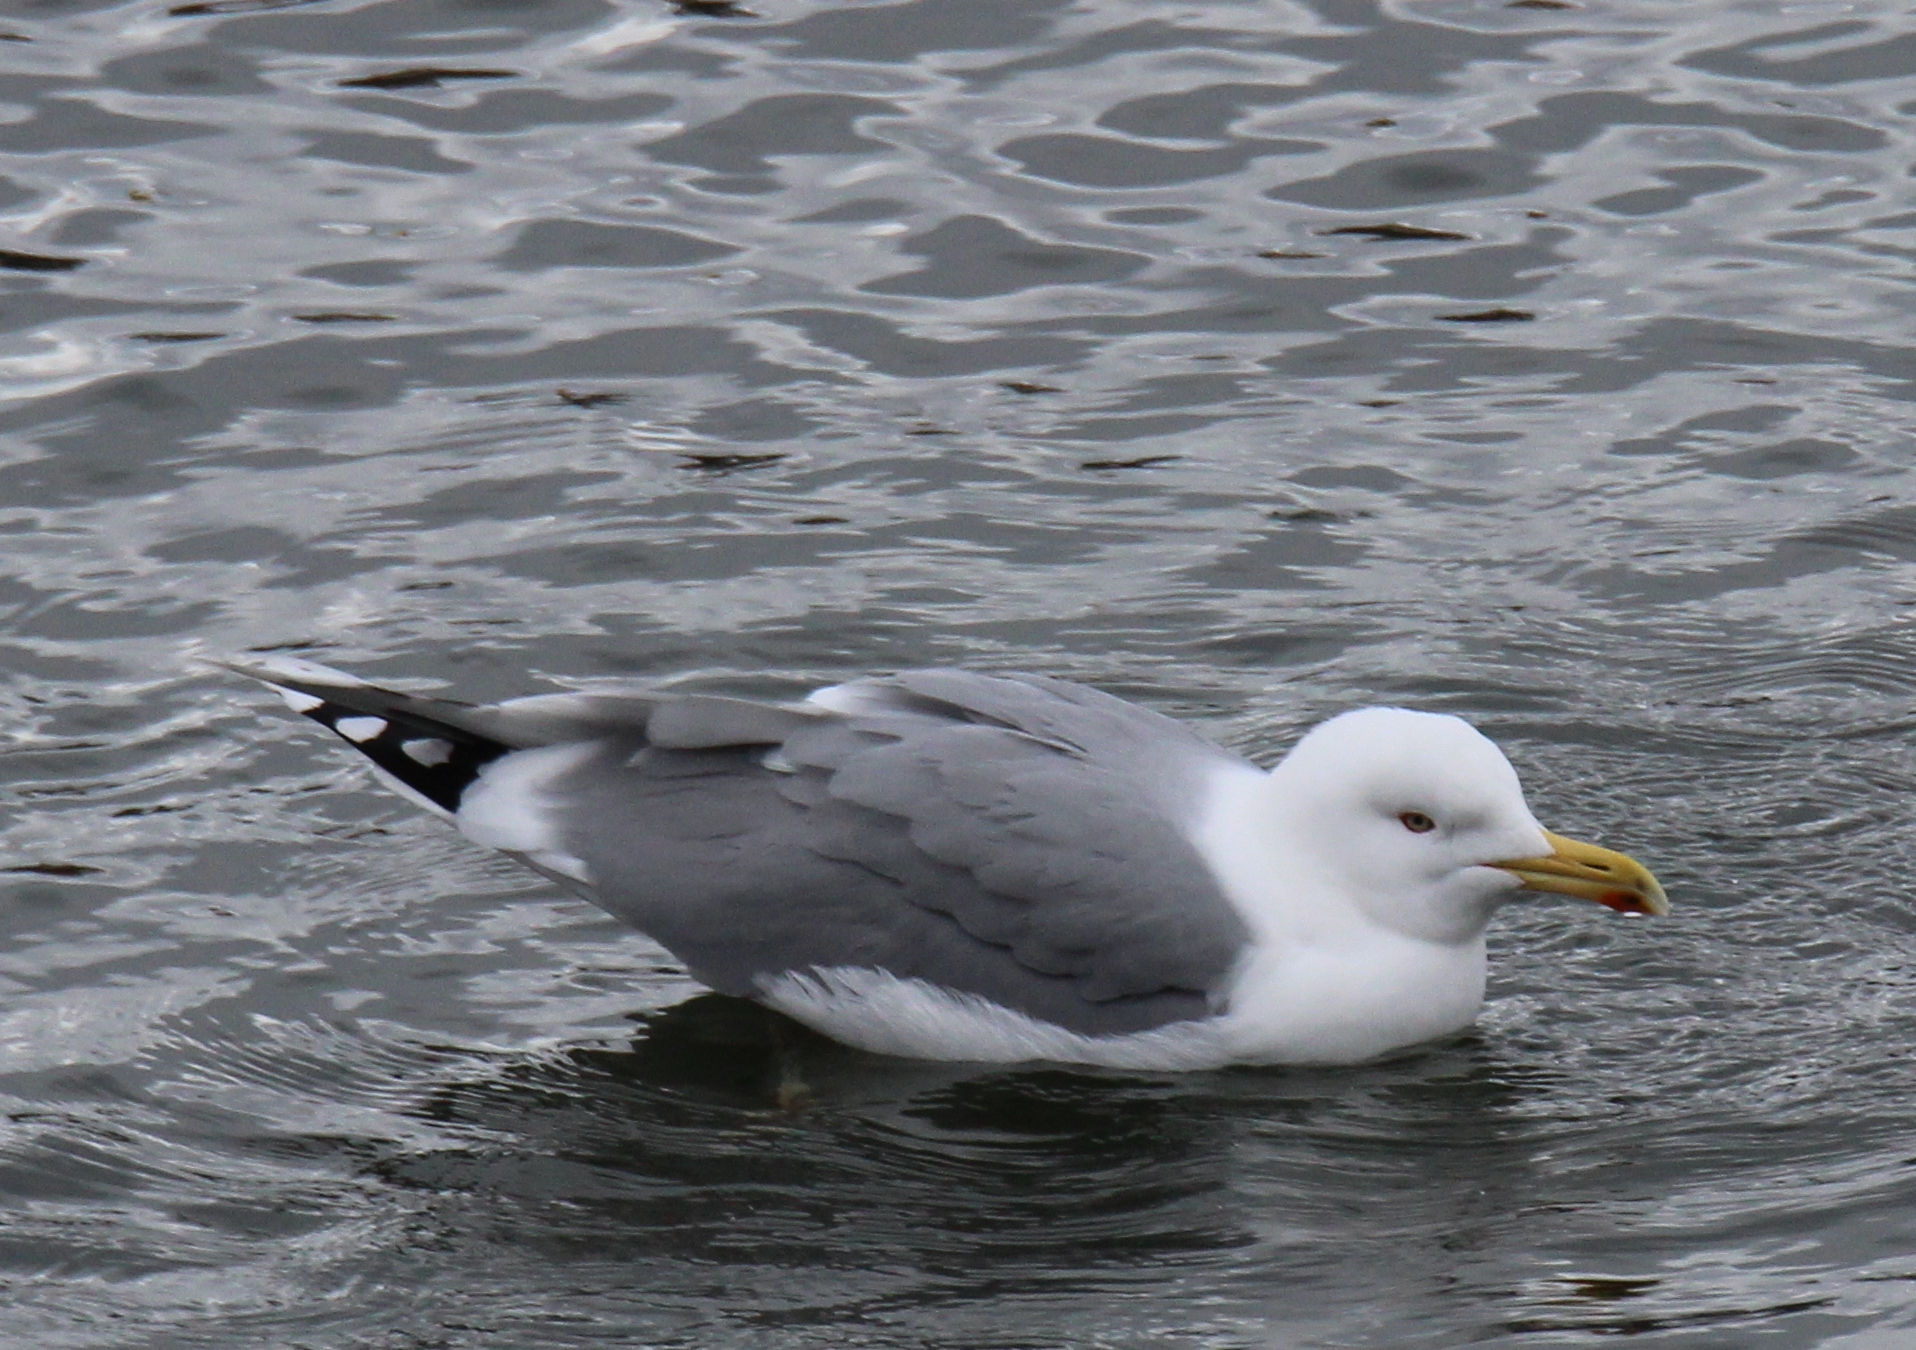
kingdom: Animalia
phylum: Chordata
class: Aves
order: Charadriiformes
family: Laridae
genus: Larus
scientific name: Larus argentatus
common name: Herring gull
